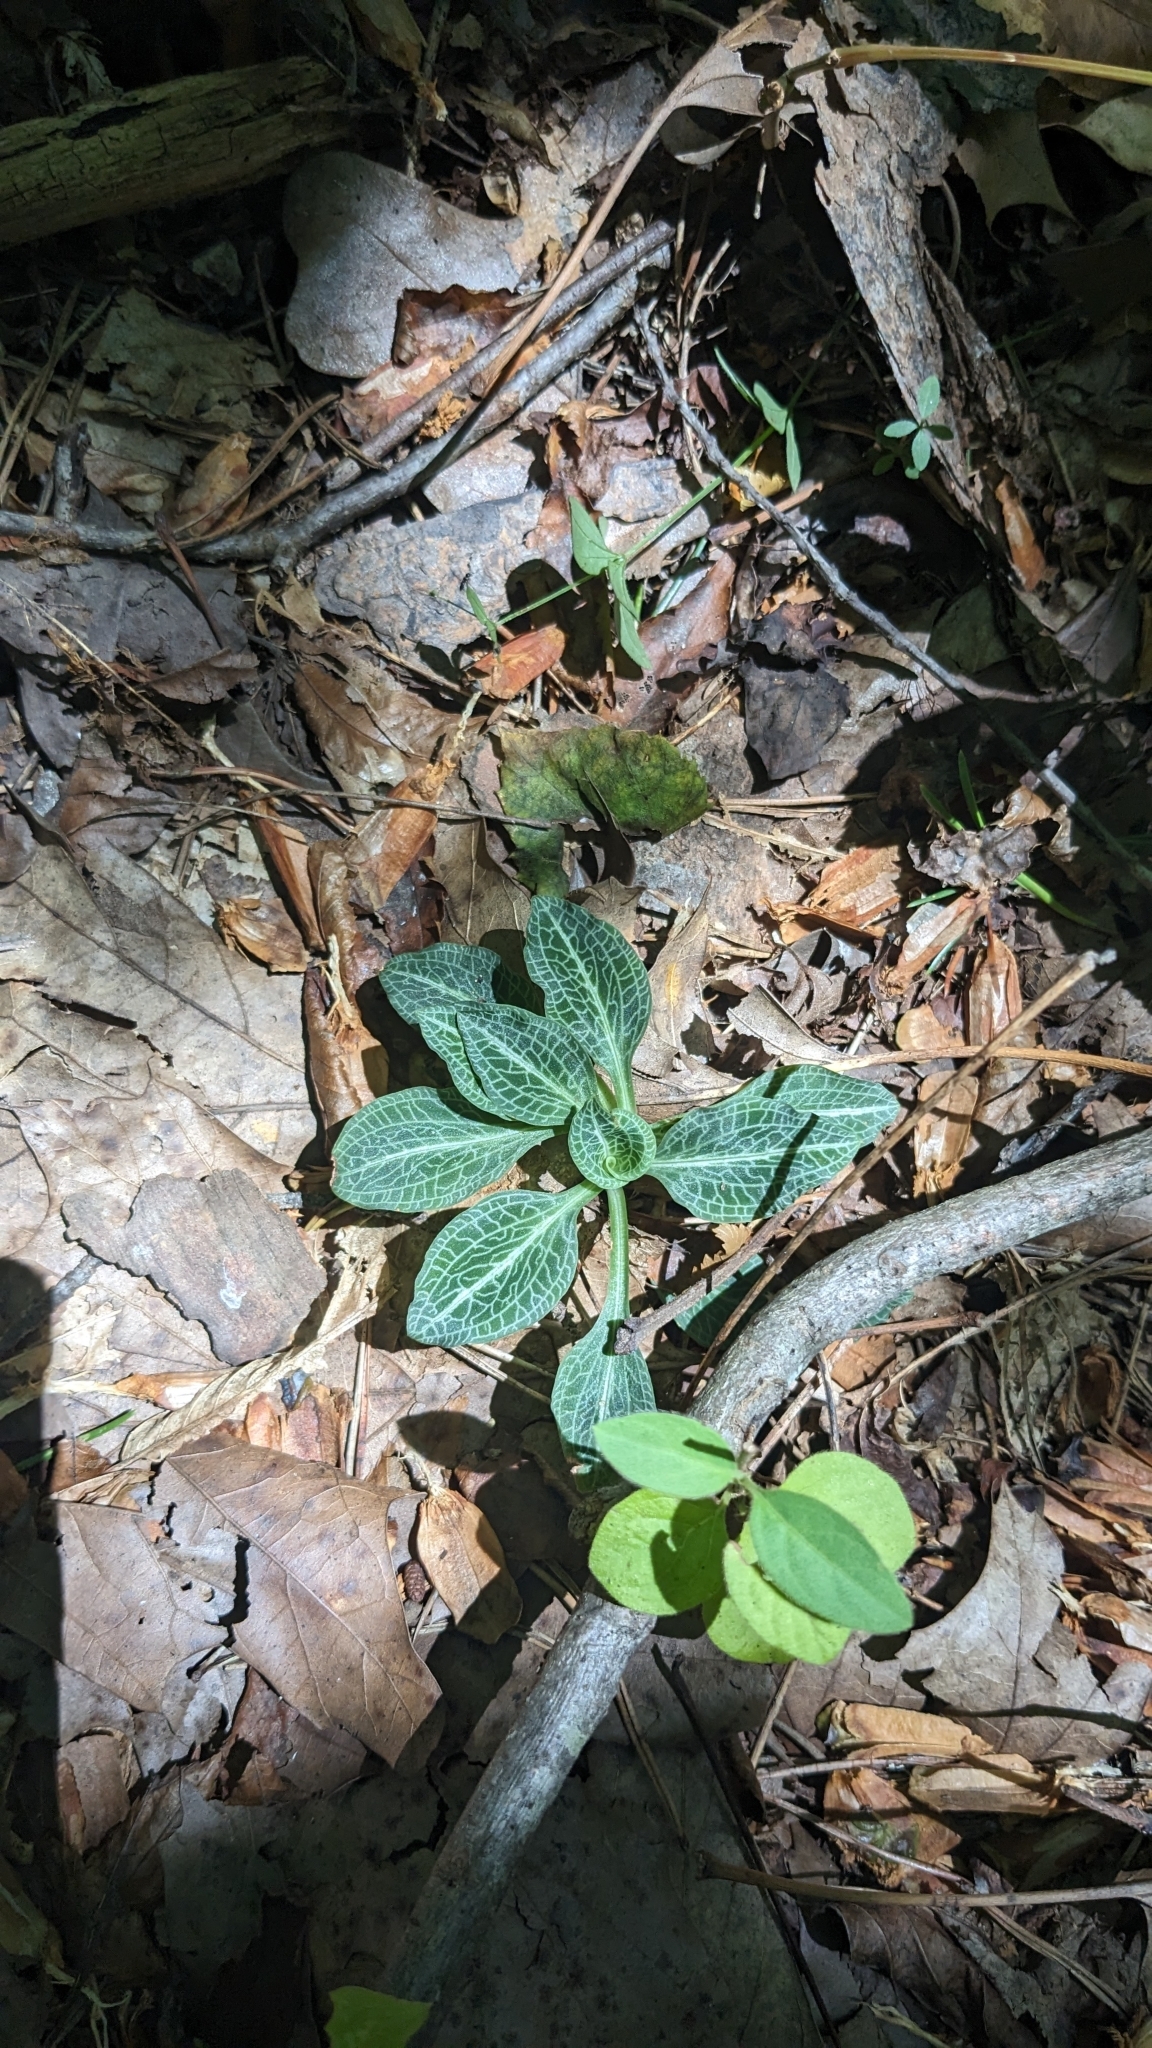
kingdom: Plantae
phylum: Tracheophyta
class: Liliopsida
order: Asparagales
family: Orchidaceae
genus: Goodyera
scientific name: Goodyera pubescens
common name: Downy rattlesnake-plantain
